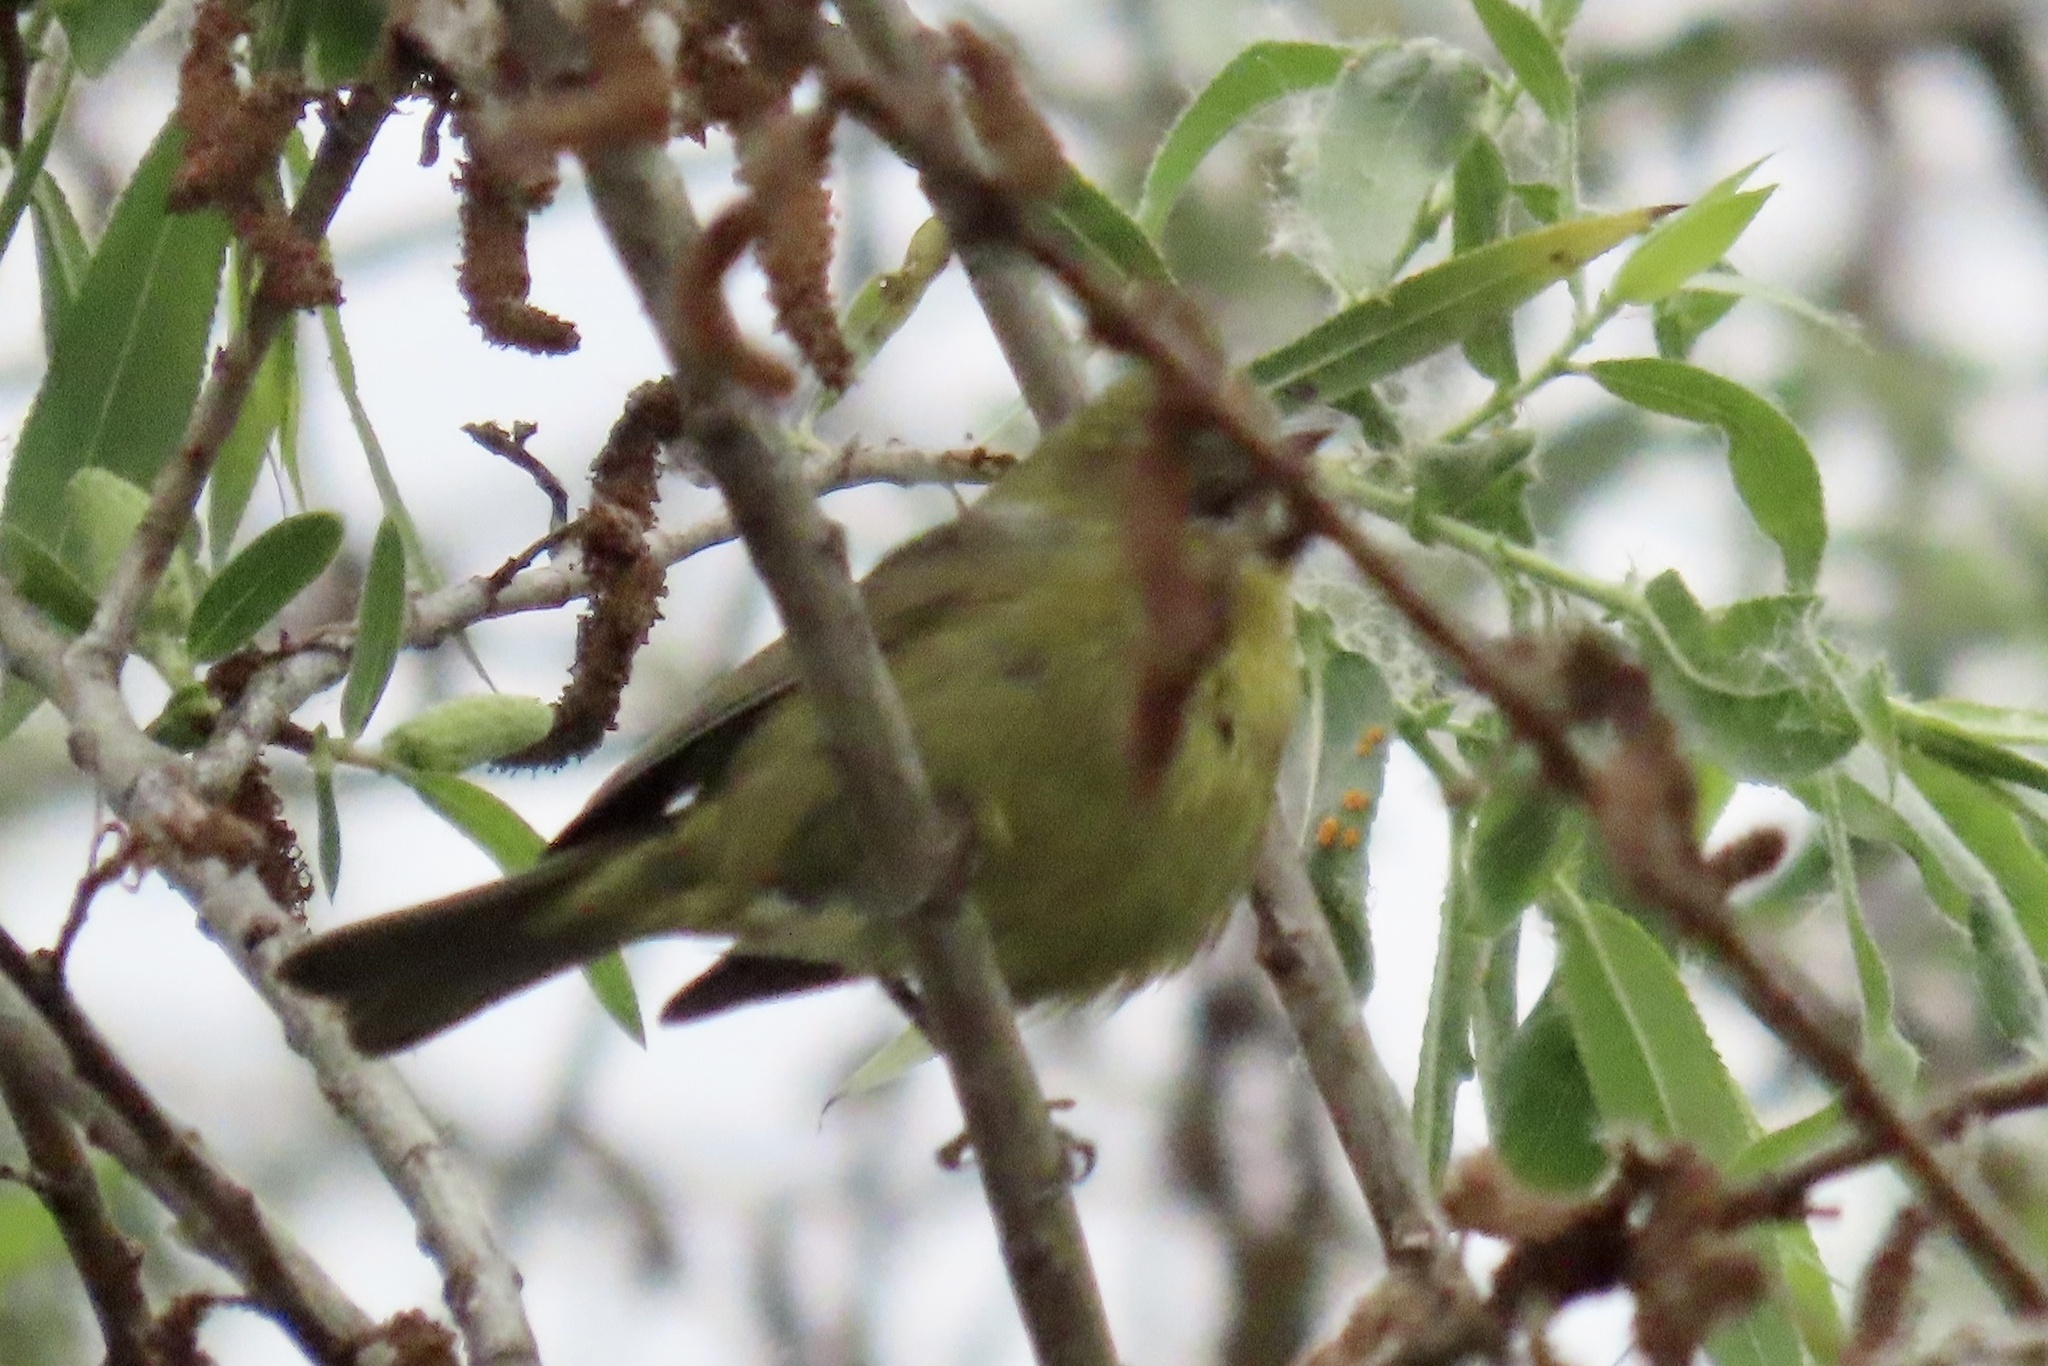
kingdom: Animalia
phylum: Chordata
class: Aves
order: Passeriformes
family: Parulidae
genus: Leiothlypis
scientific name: Leiothlypis celata
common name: Orange-crowned warbler
